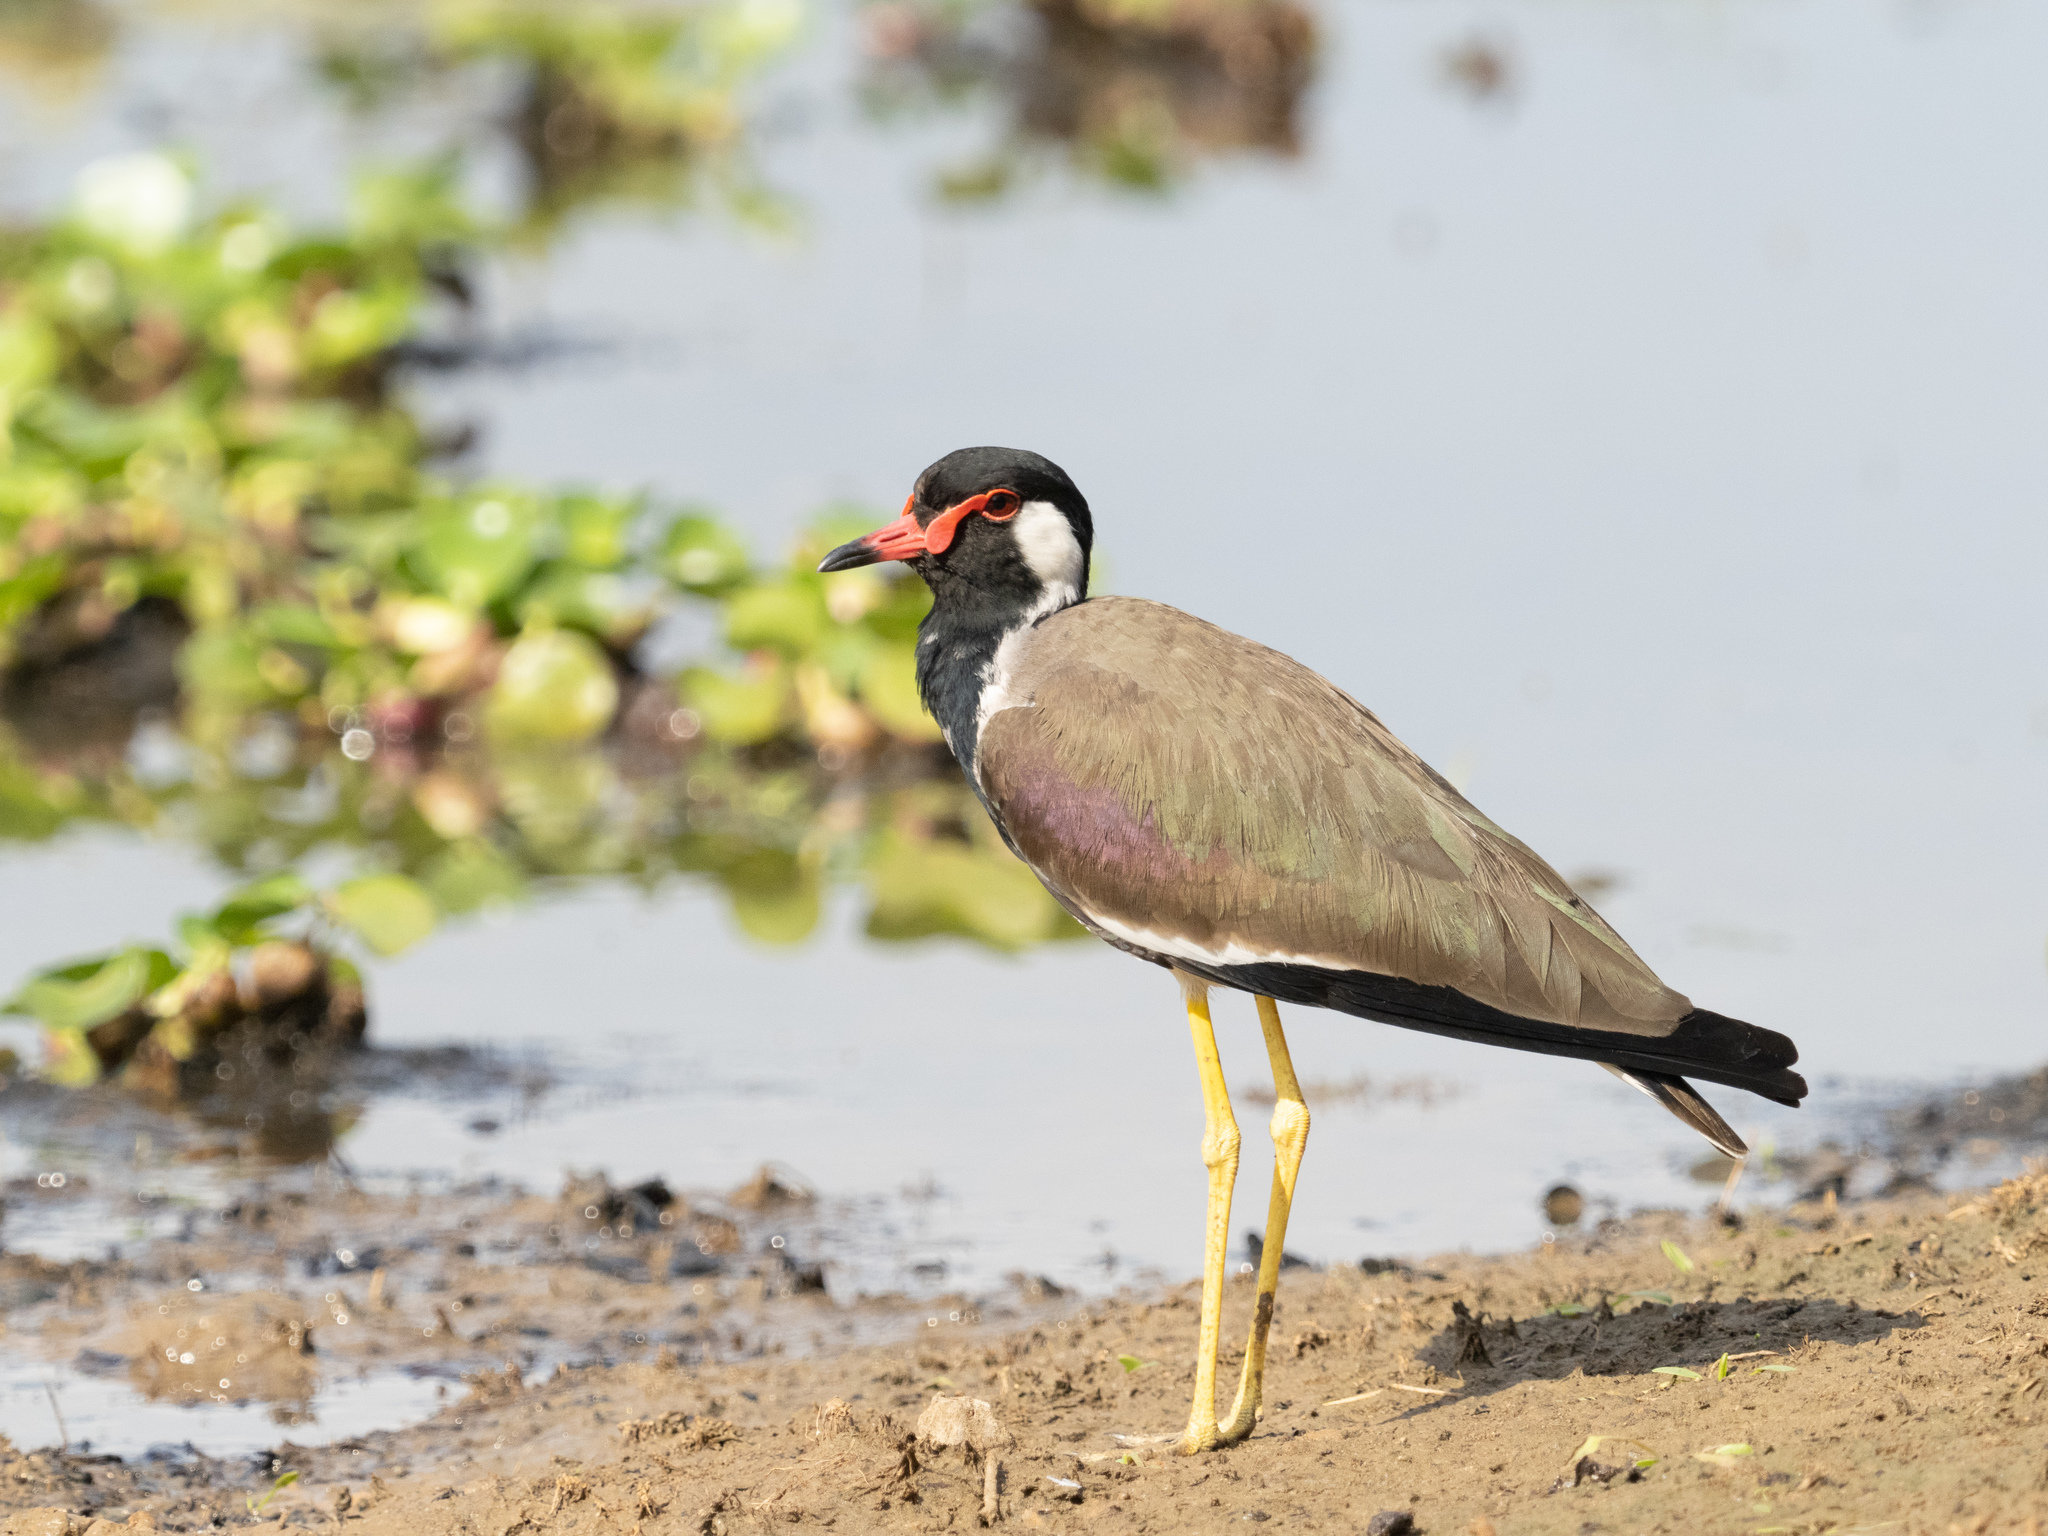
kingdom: Animalia
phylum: Chordata
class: Aves
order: Charadriiformes
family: Charadriidae
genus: Vanellus
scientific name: Vanellus indicus
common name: Red-wattled lapwing
